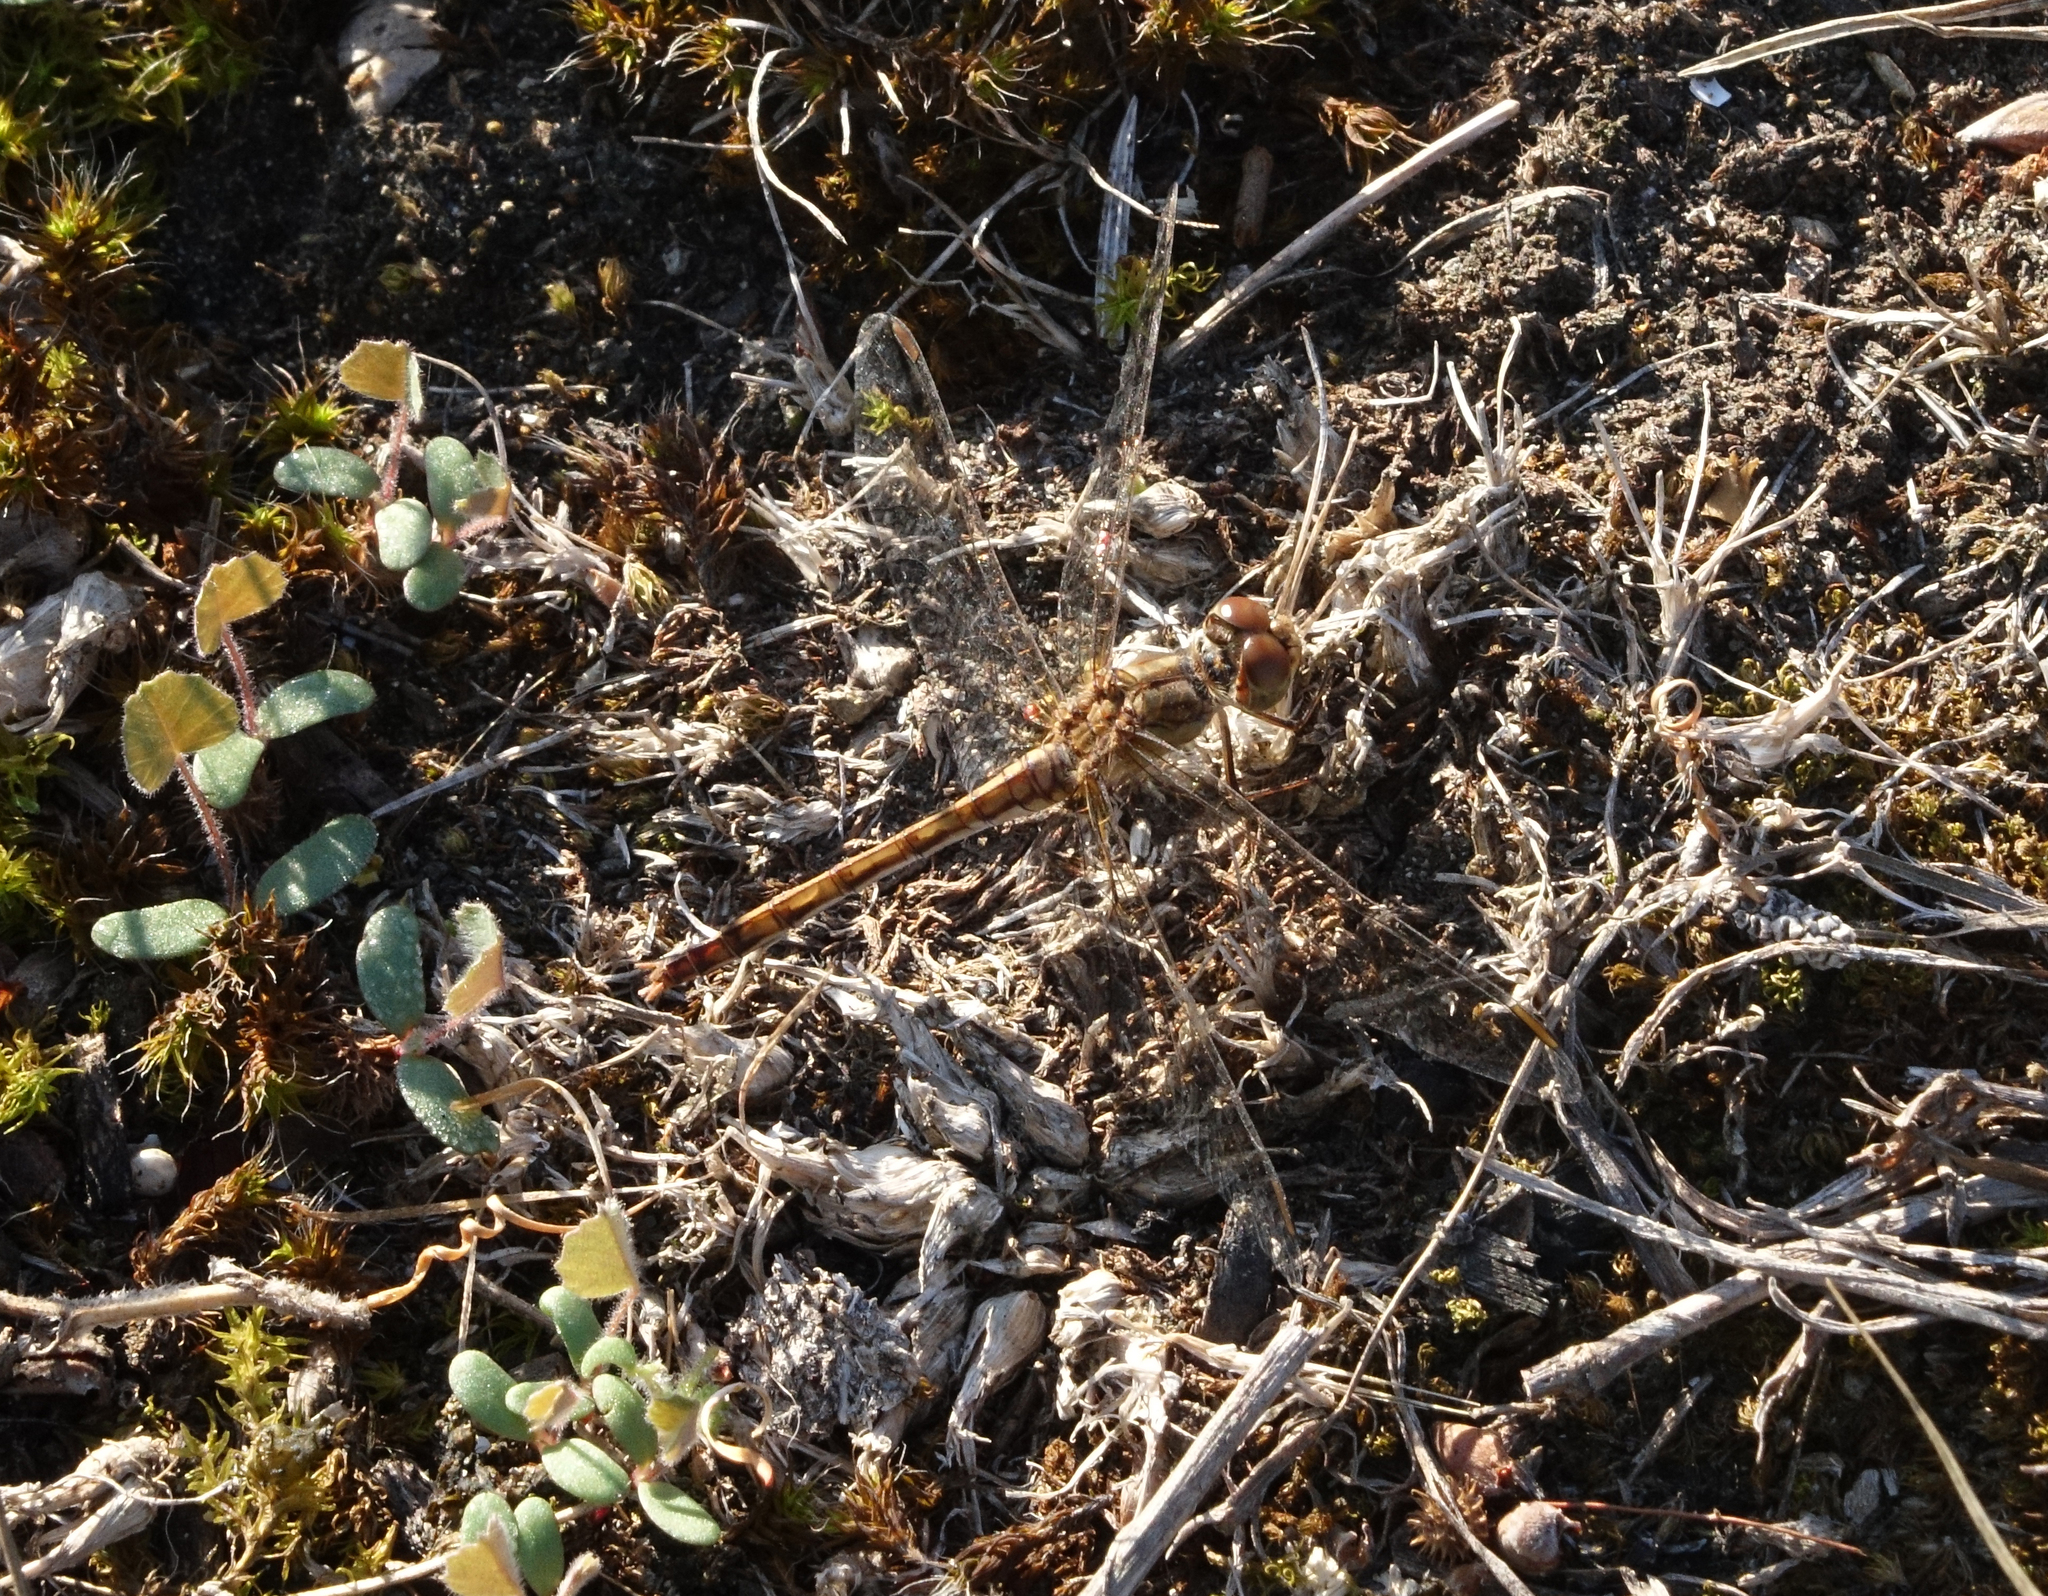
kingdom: Animalia
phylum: Arthropoda
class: Insecta
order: Odonata
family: Libellulidae
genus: Sympetrum
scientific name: Sympetrum meridionale
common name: Southern darter
